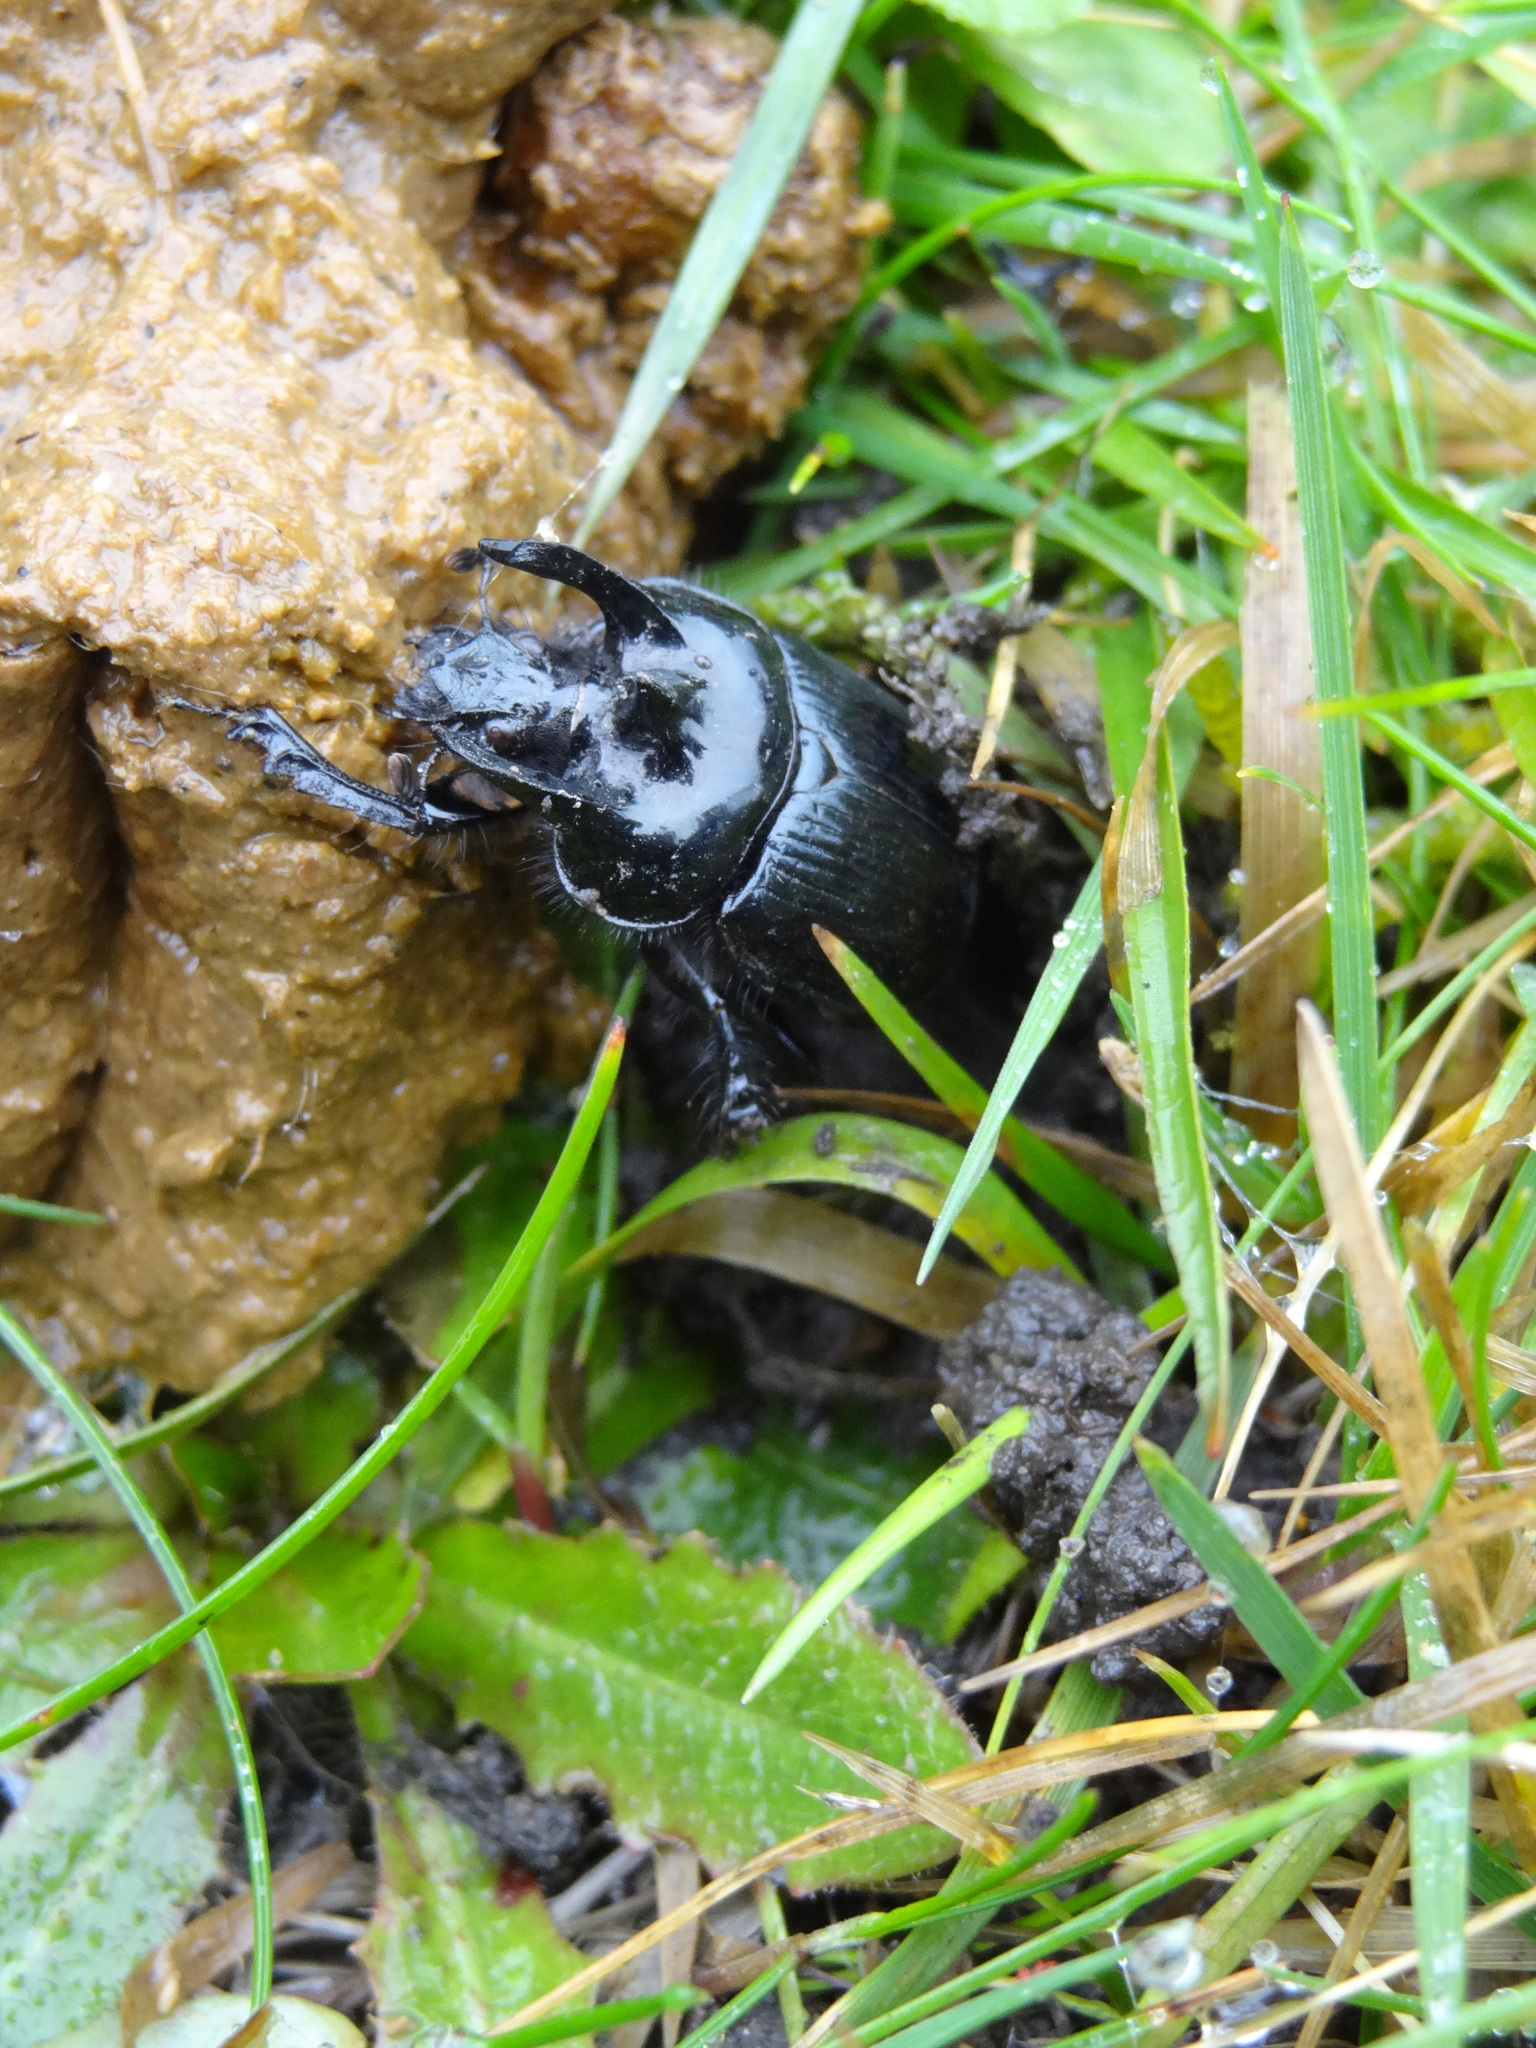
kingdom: Animalia
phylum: Arthropoda
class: Insecta
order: Coleoptera
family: Geotrupidae
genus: Typhaeus
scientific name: Typhaeus typhoeus
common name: Minotaur beetle
